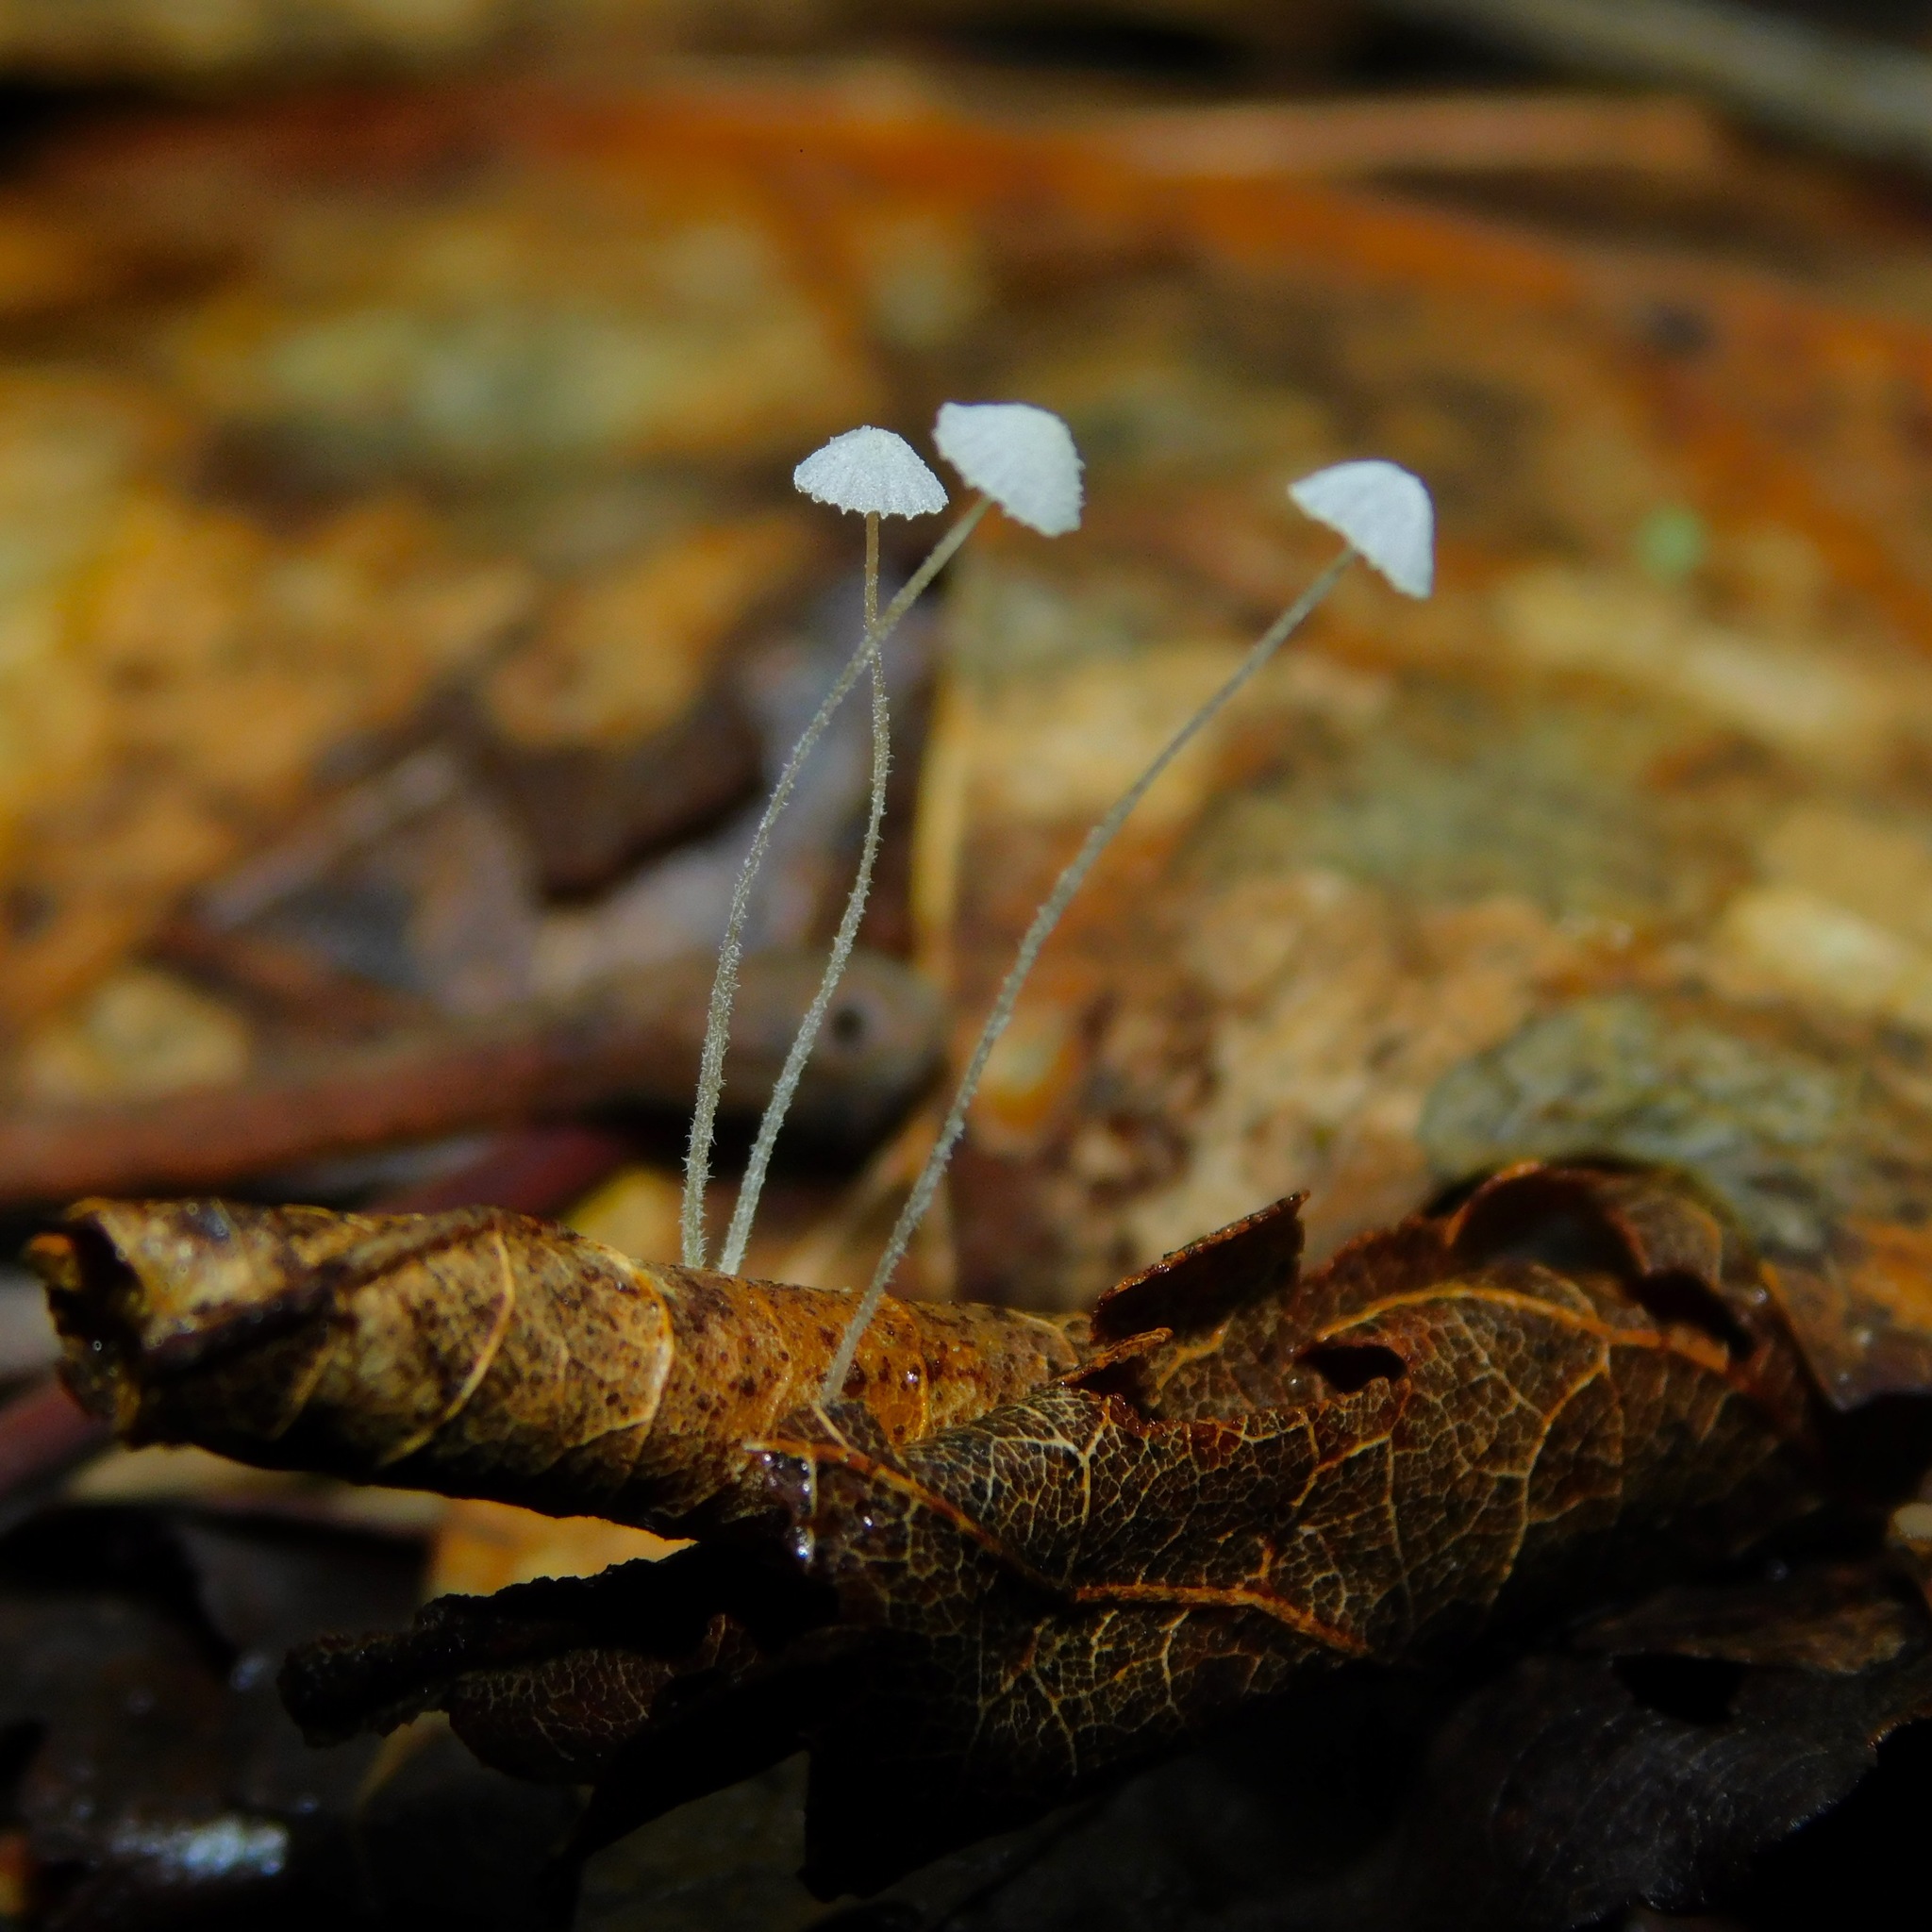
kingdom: Fungi
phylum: Basidiomycota
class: Agaricomycetes
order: Agaricales
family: Mycenaceae
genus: Mycena
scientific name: Mycena tenerrima
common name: Frosty bonnet
